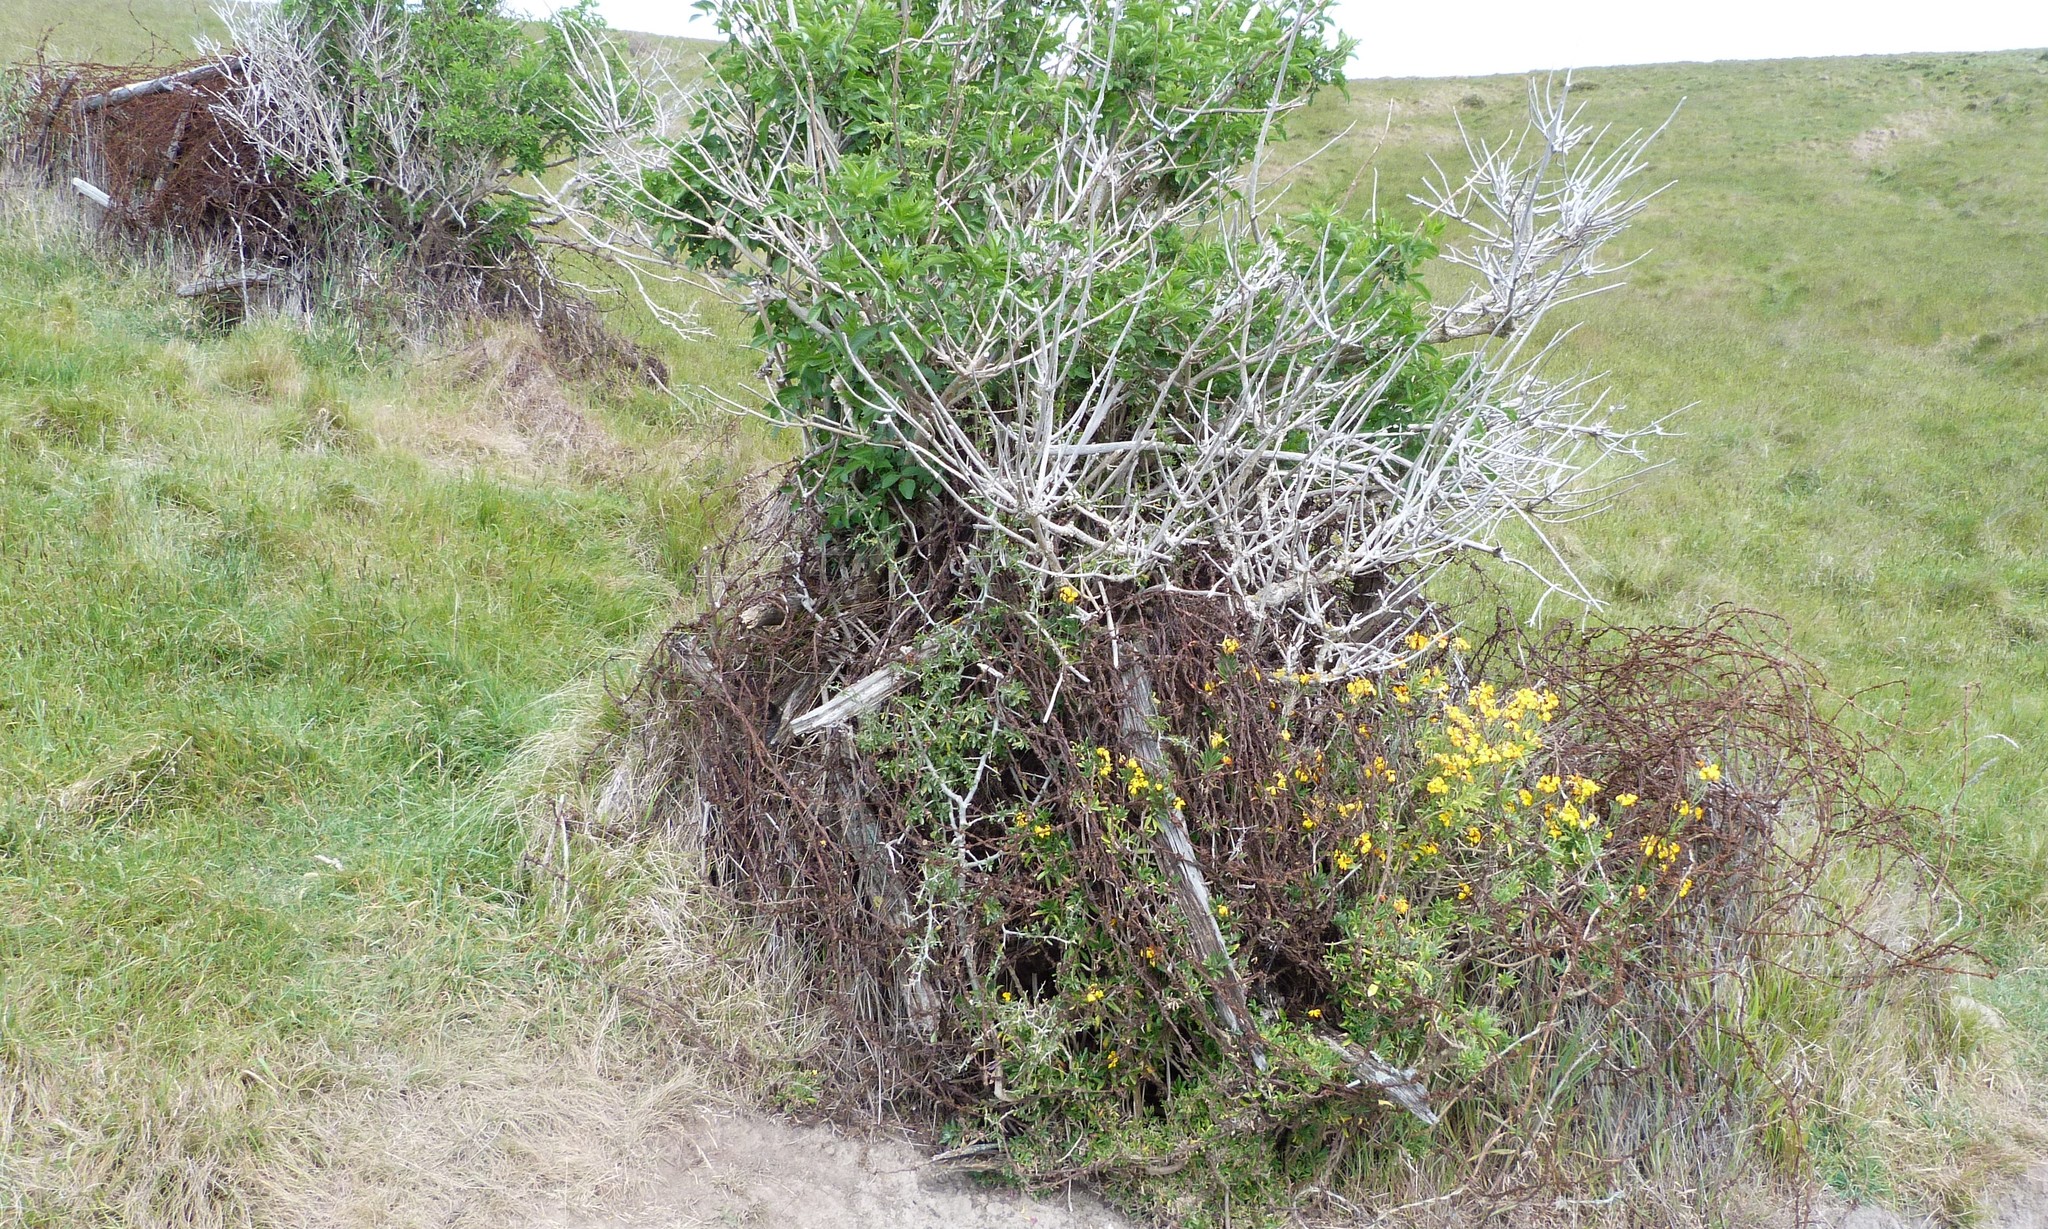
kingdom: Plantae
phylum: Tracheophyta
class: Magnoliopsida
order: Brassicales
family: Brassicaceae
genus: Erysimum
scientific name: Erysimum cheiri
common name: Wallflower
